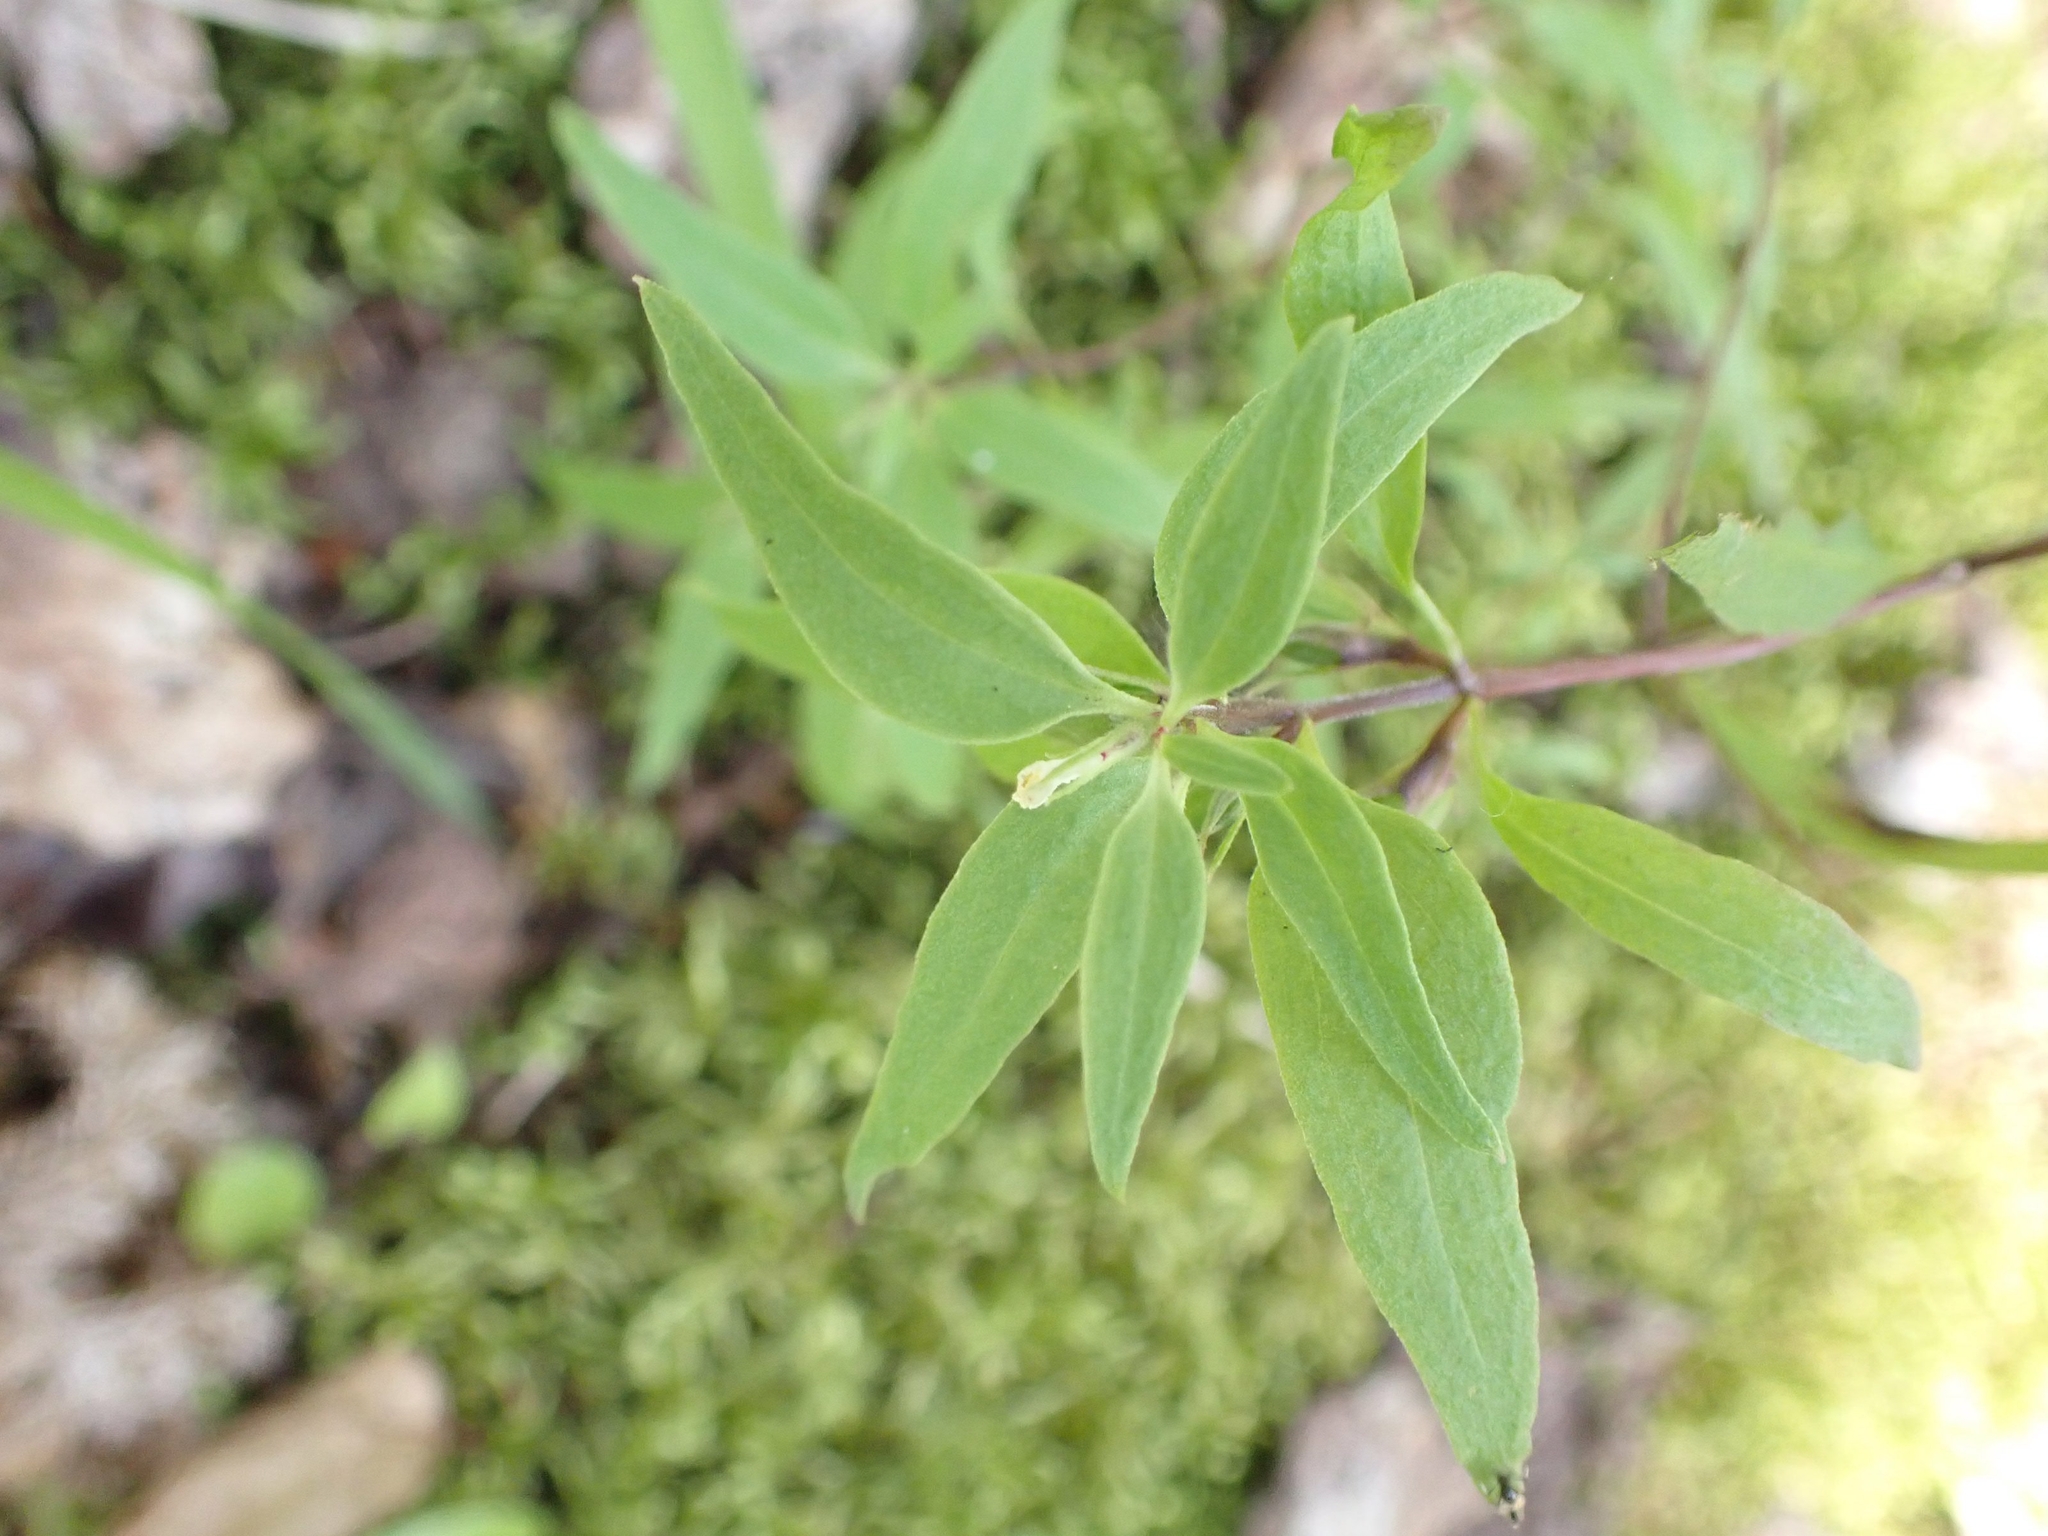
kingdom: Plantae
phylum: Tracheophyta
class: Magnoliopsida
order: Lamiales
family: Orobanchaceae
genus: Melampyrum
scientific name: Melampyrum lineare
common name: American cow-wheat
